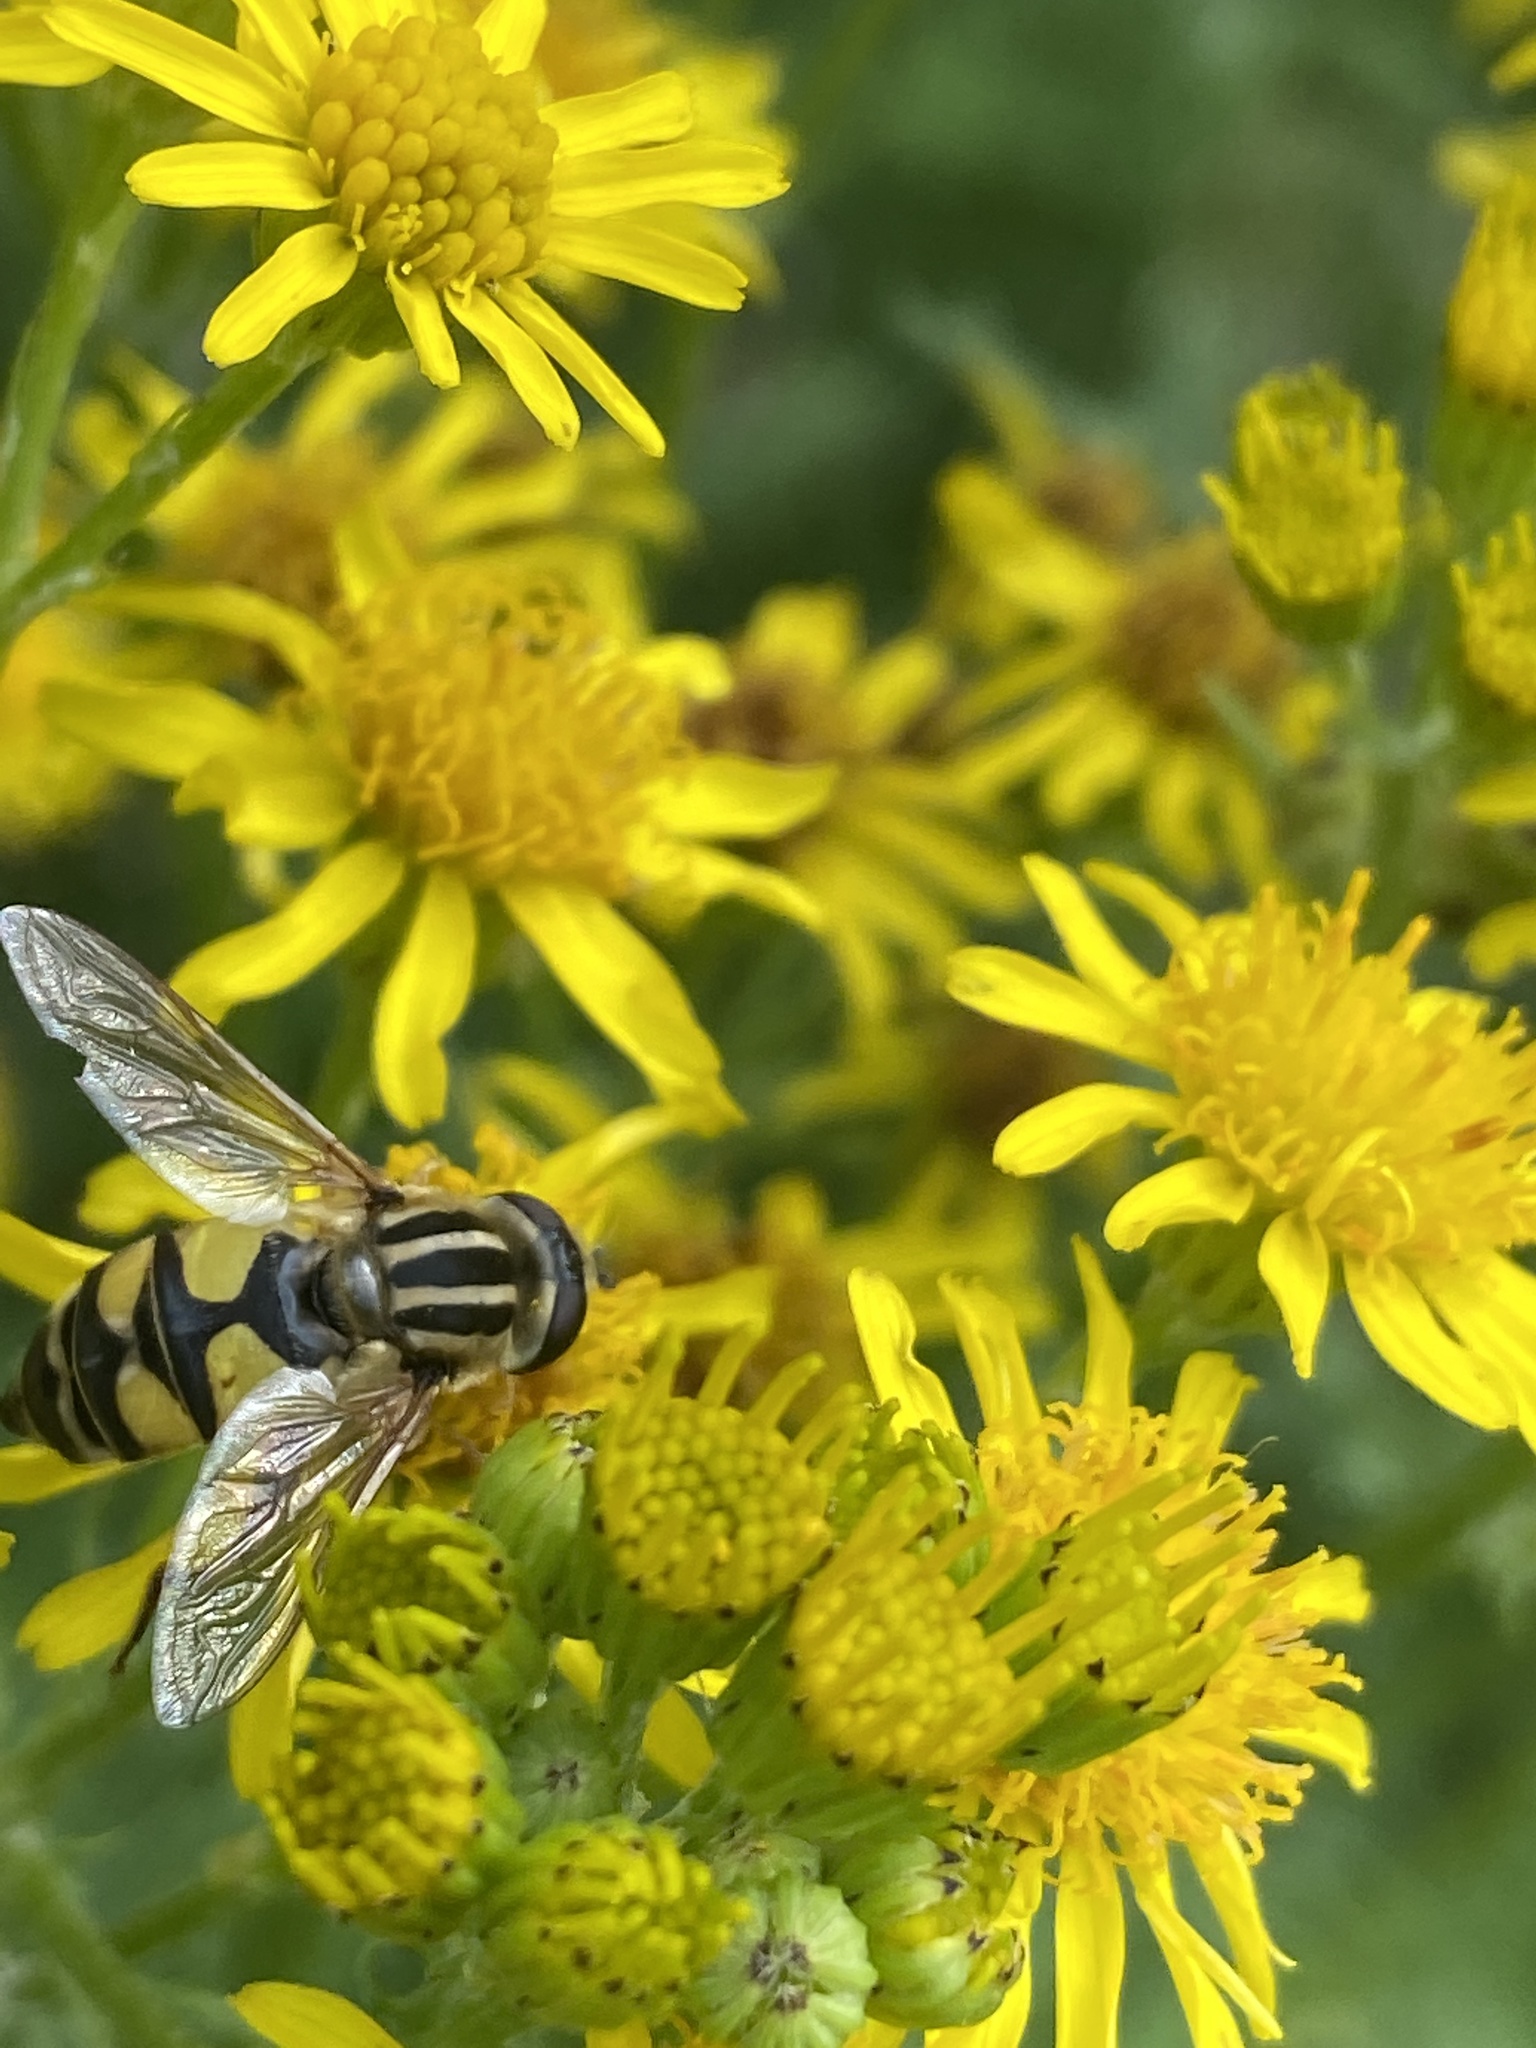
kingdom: Animalia
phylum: Arthropoda
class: Insecta
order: Diptera
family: Syrphidae
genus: Helophilus
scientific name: Helophilus trivittatus
